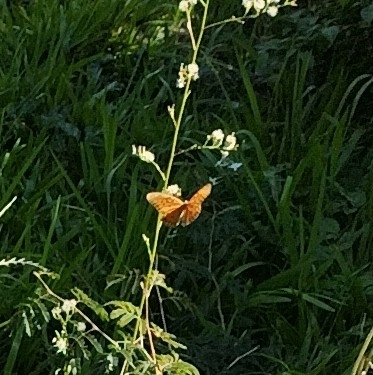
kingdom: Animalia
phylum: Arthropoda
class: Insecta
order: Lepidoptera
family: Nymphalidae
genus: Dione
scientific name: Dione vanillae
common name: Gulf fritillary
